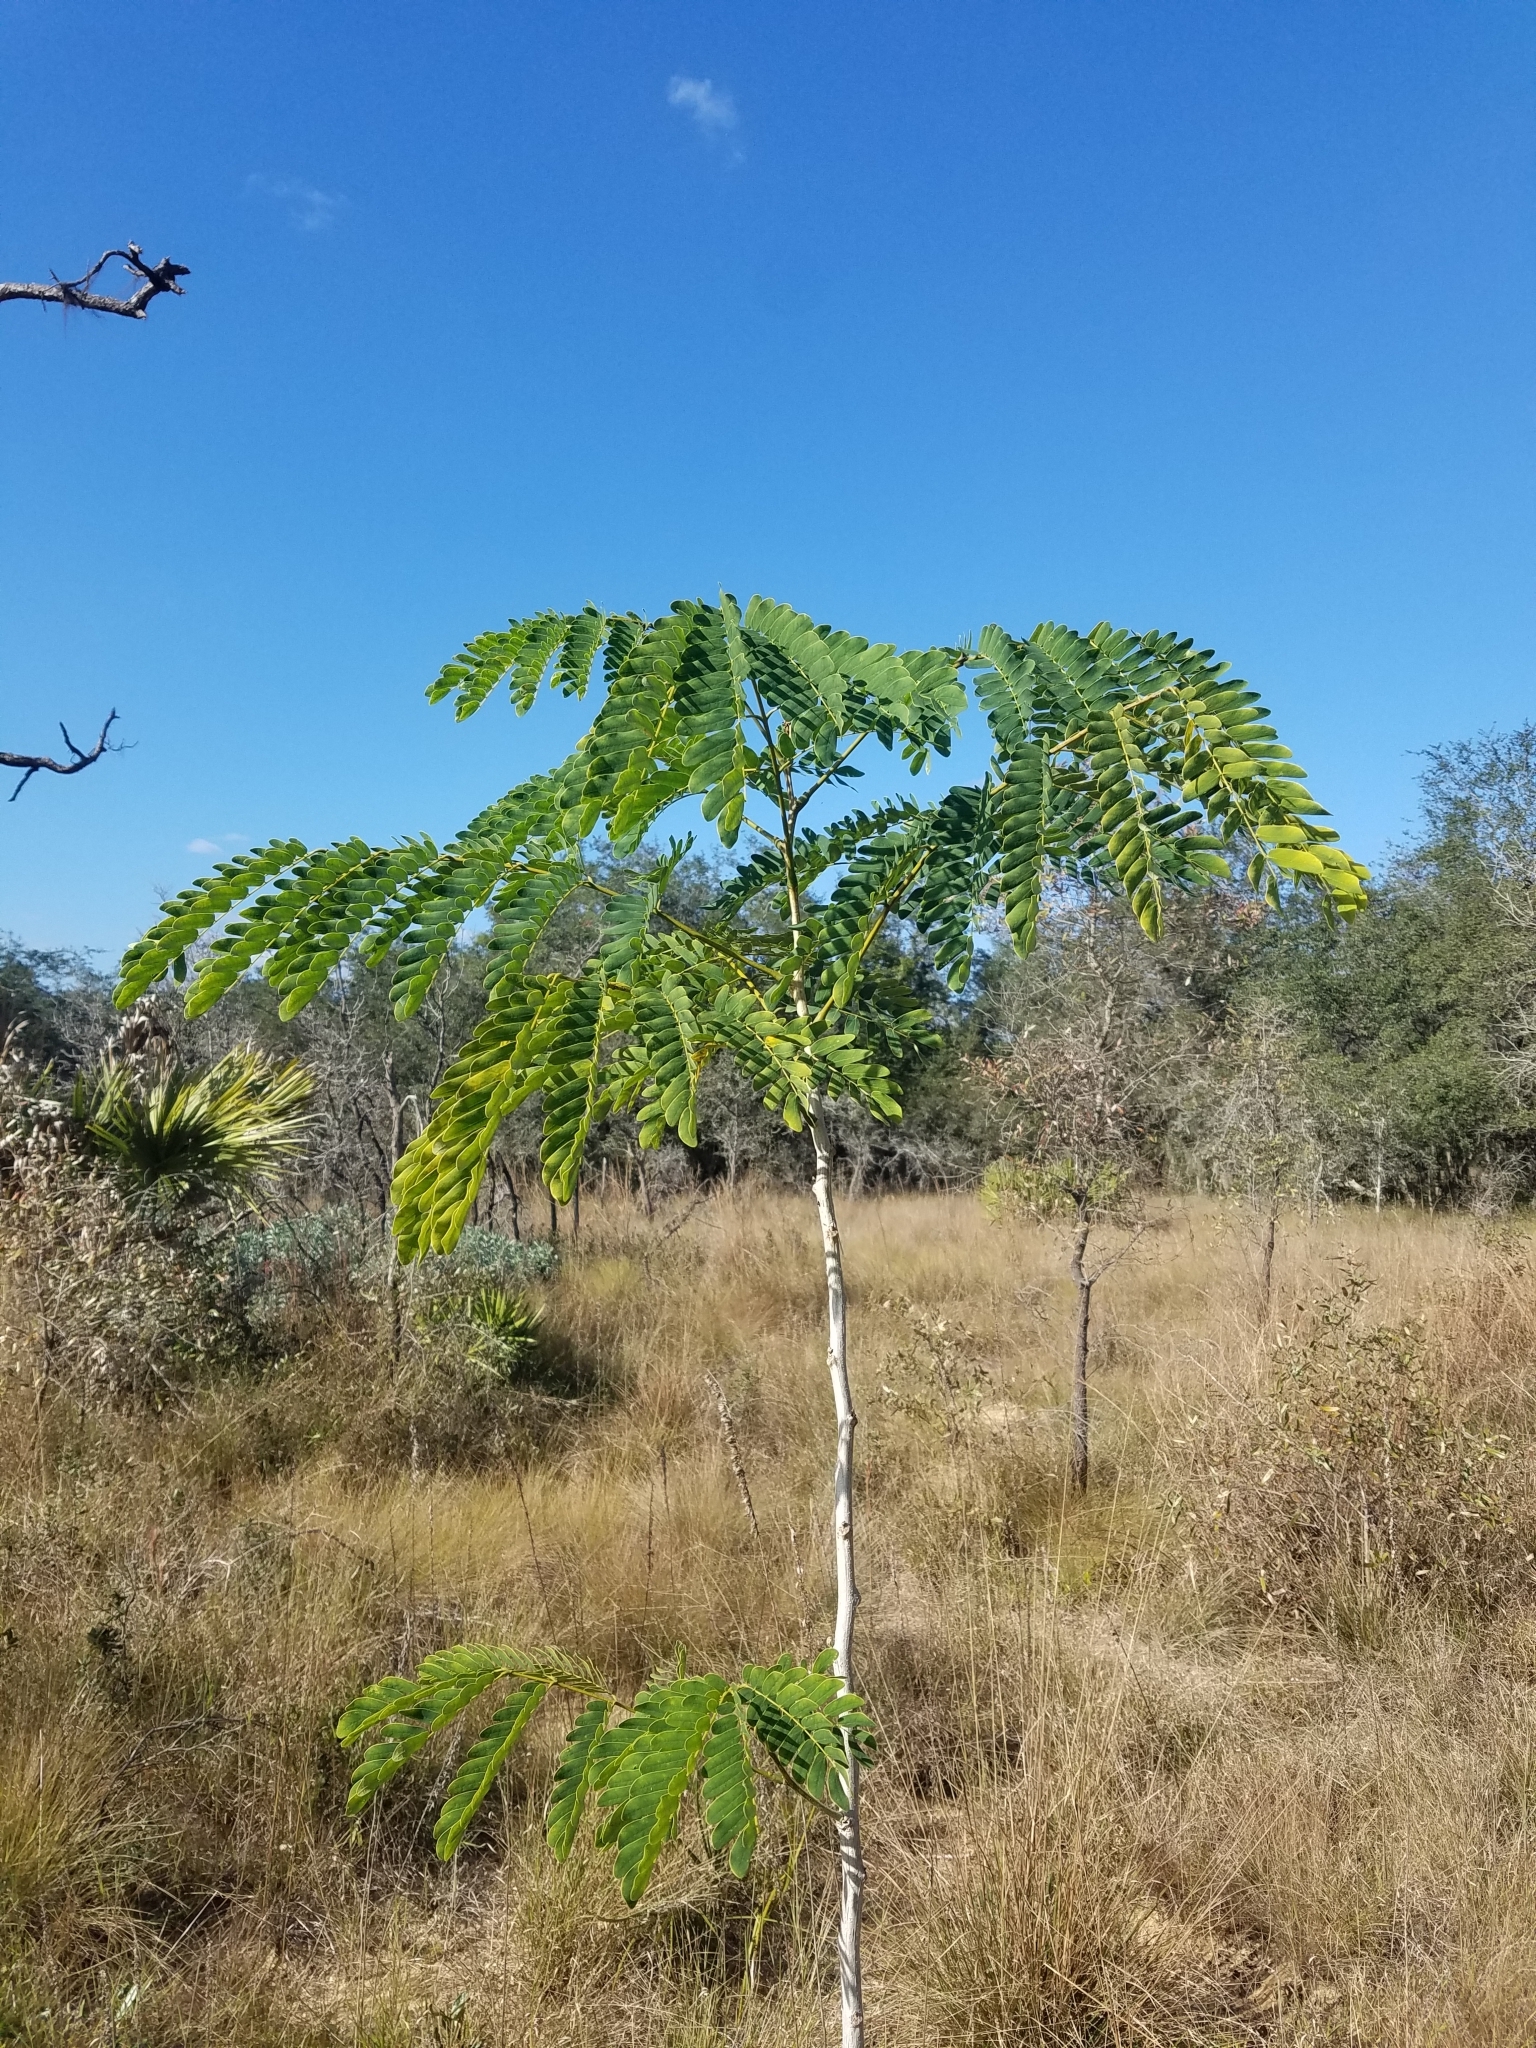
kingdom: Plantae
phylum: Tracheophyta
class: Magnoliopsida
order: Fabales
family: Fabaceae
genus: Albizia
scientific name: Albizia lebbeck
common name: Woman's tongue
